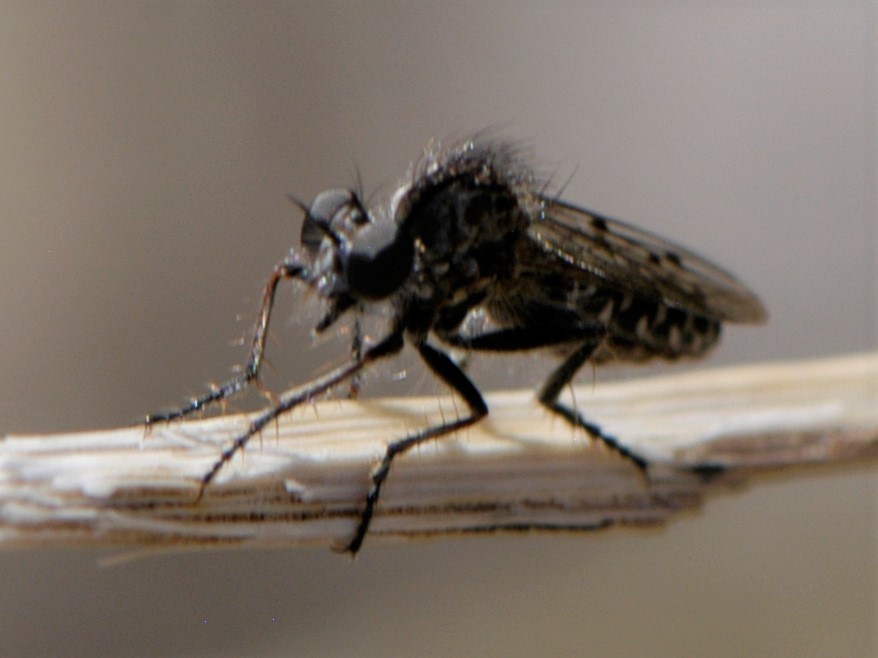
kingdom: Animalia
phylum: Arthropoda
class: Insecta
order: Diptera
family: Asilidae
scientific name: Asilidae
